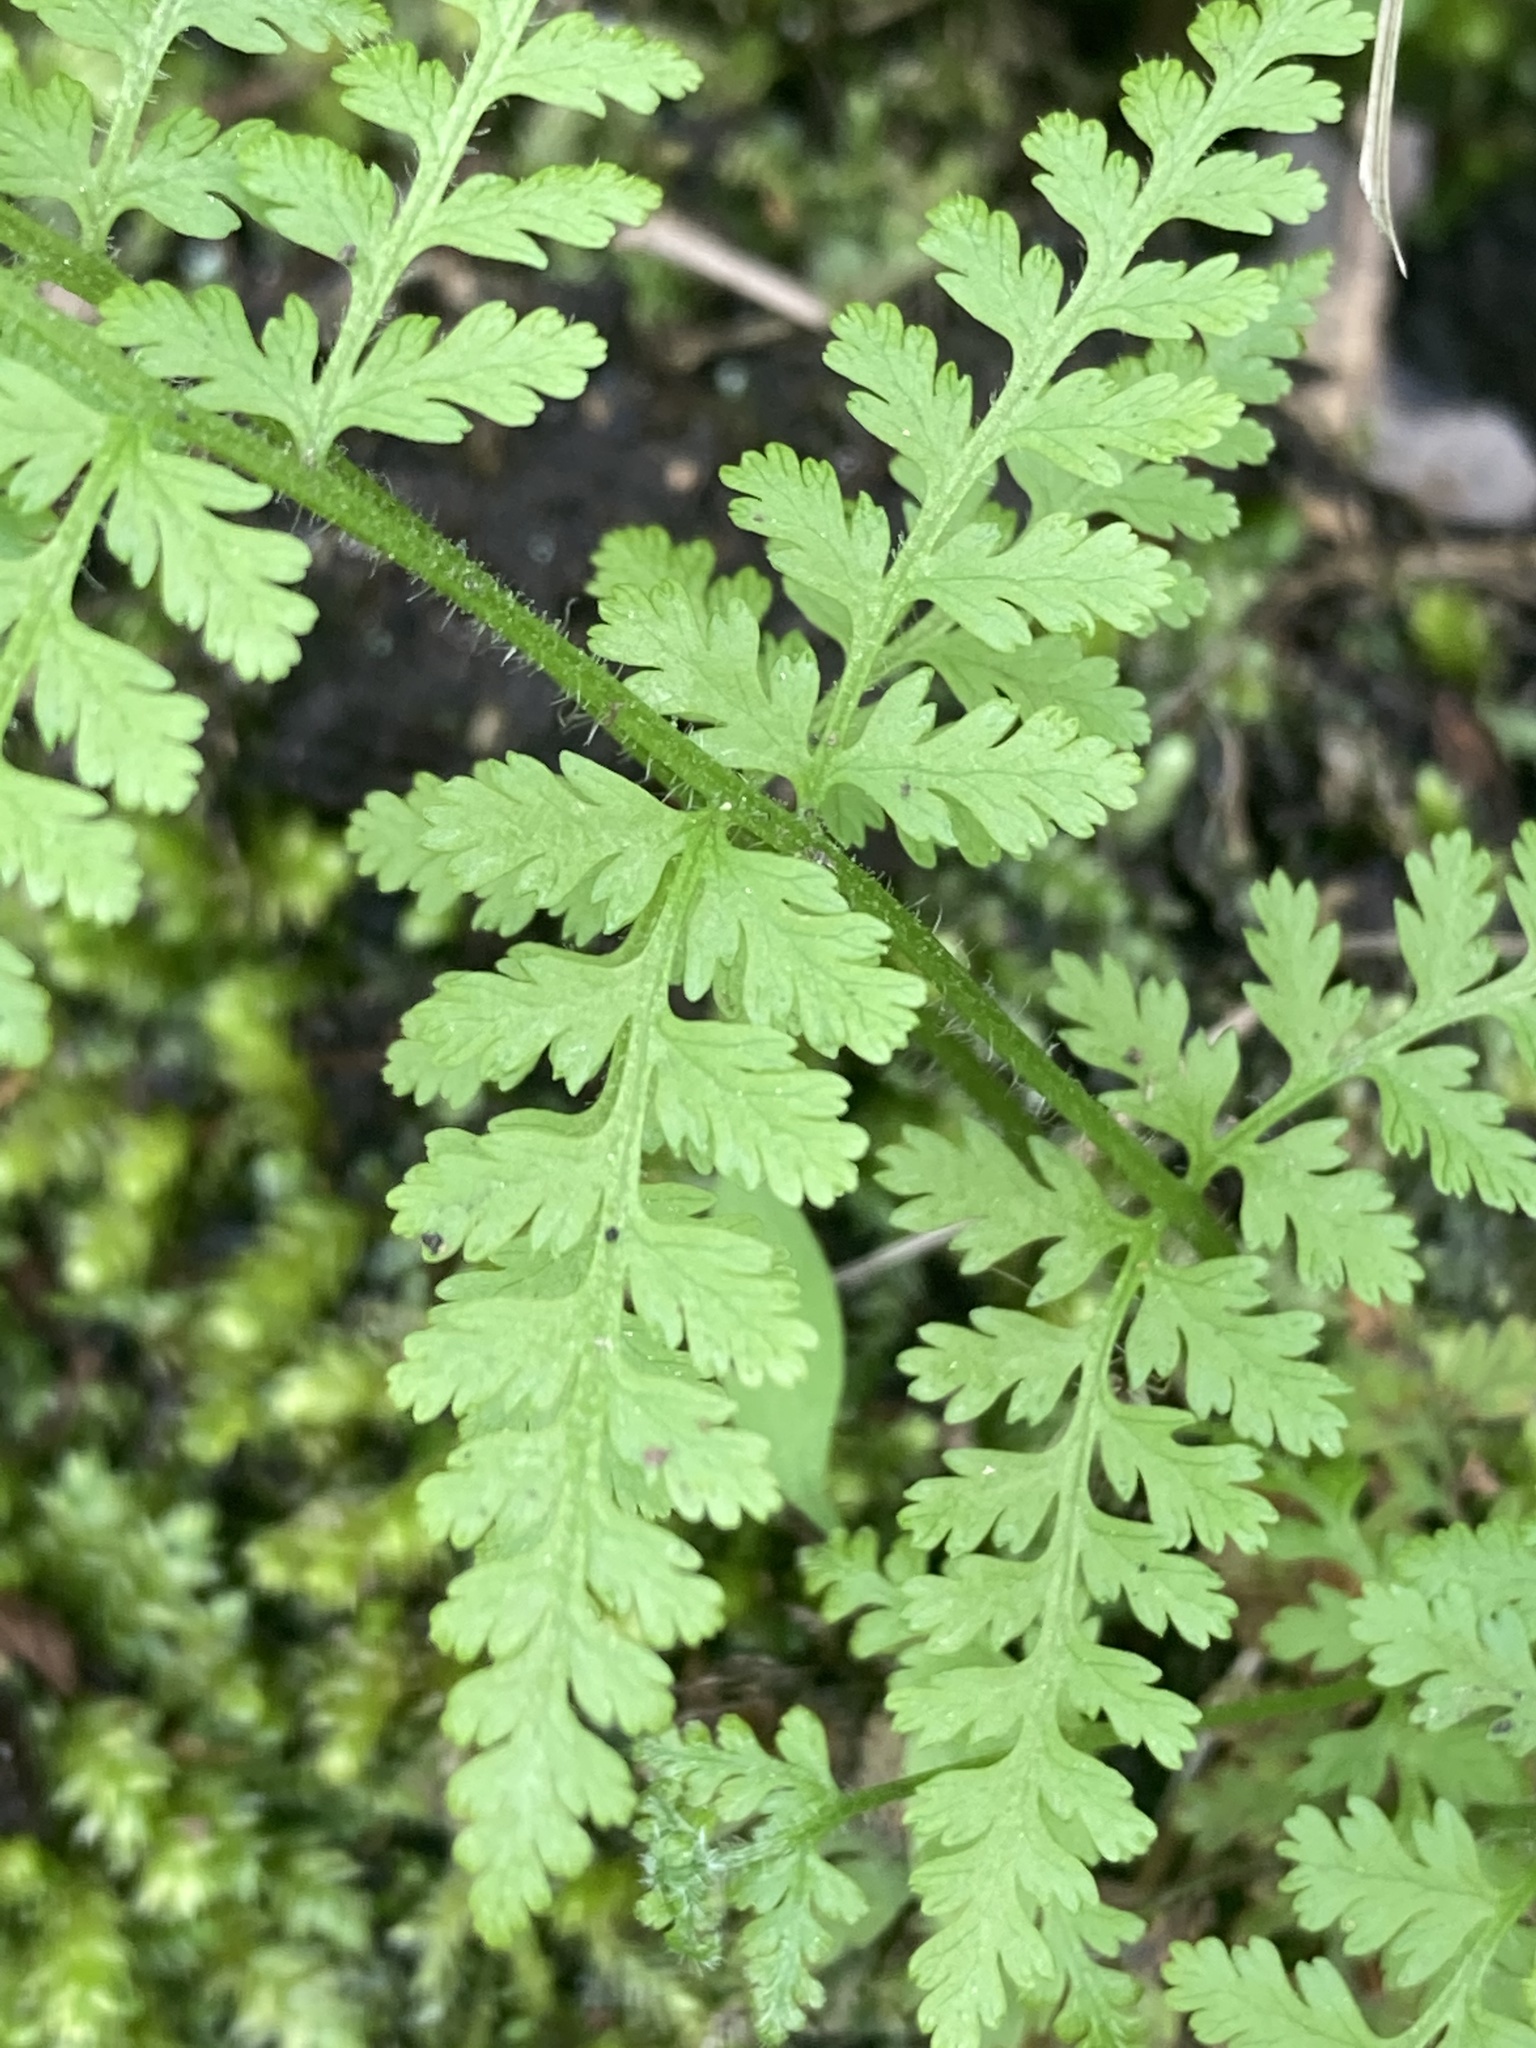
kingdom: Plantae
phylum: Tracheophyta
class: Polypodiopsida
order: Polypodiales
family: Dennstaedtiaceae
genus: Sitobolium
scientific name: Sitobolium punctilobum
